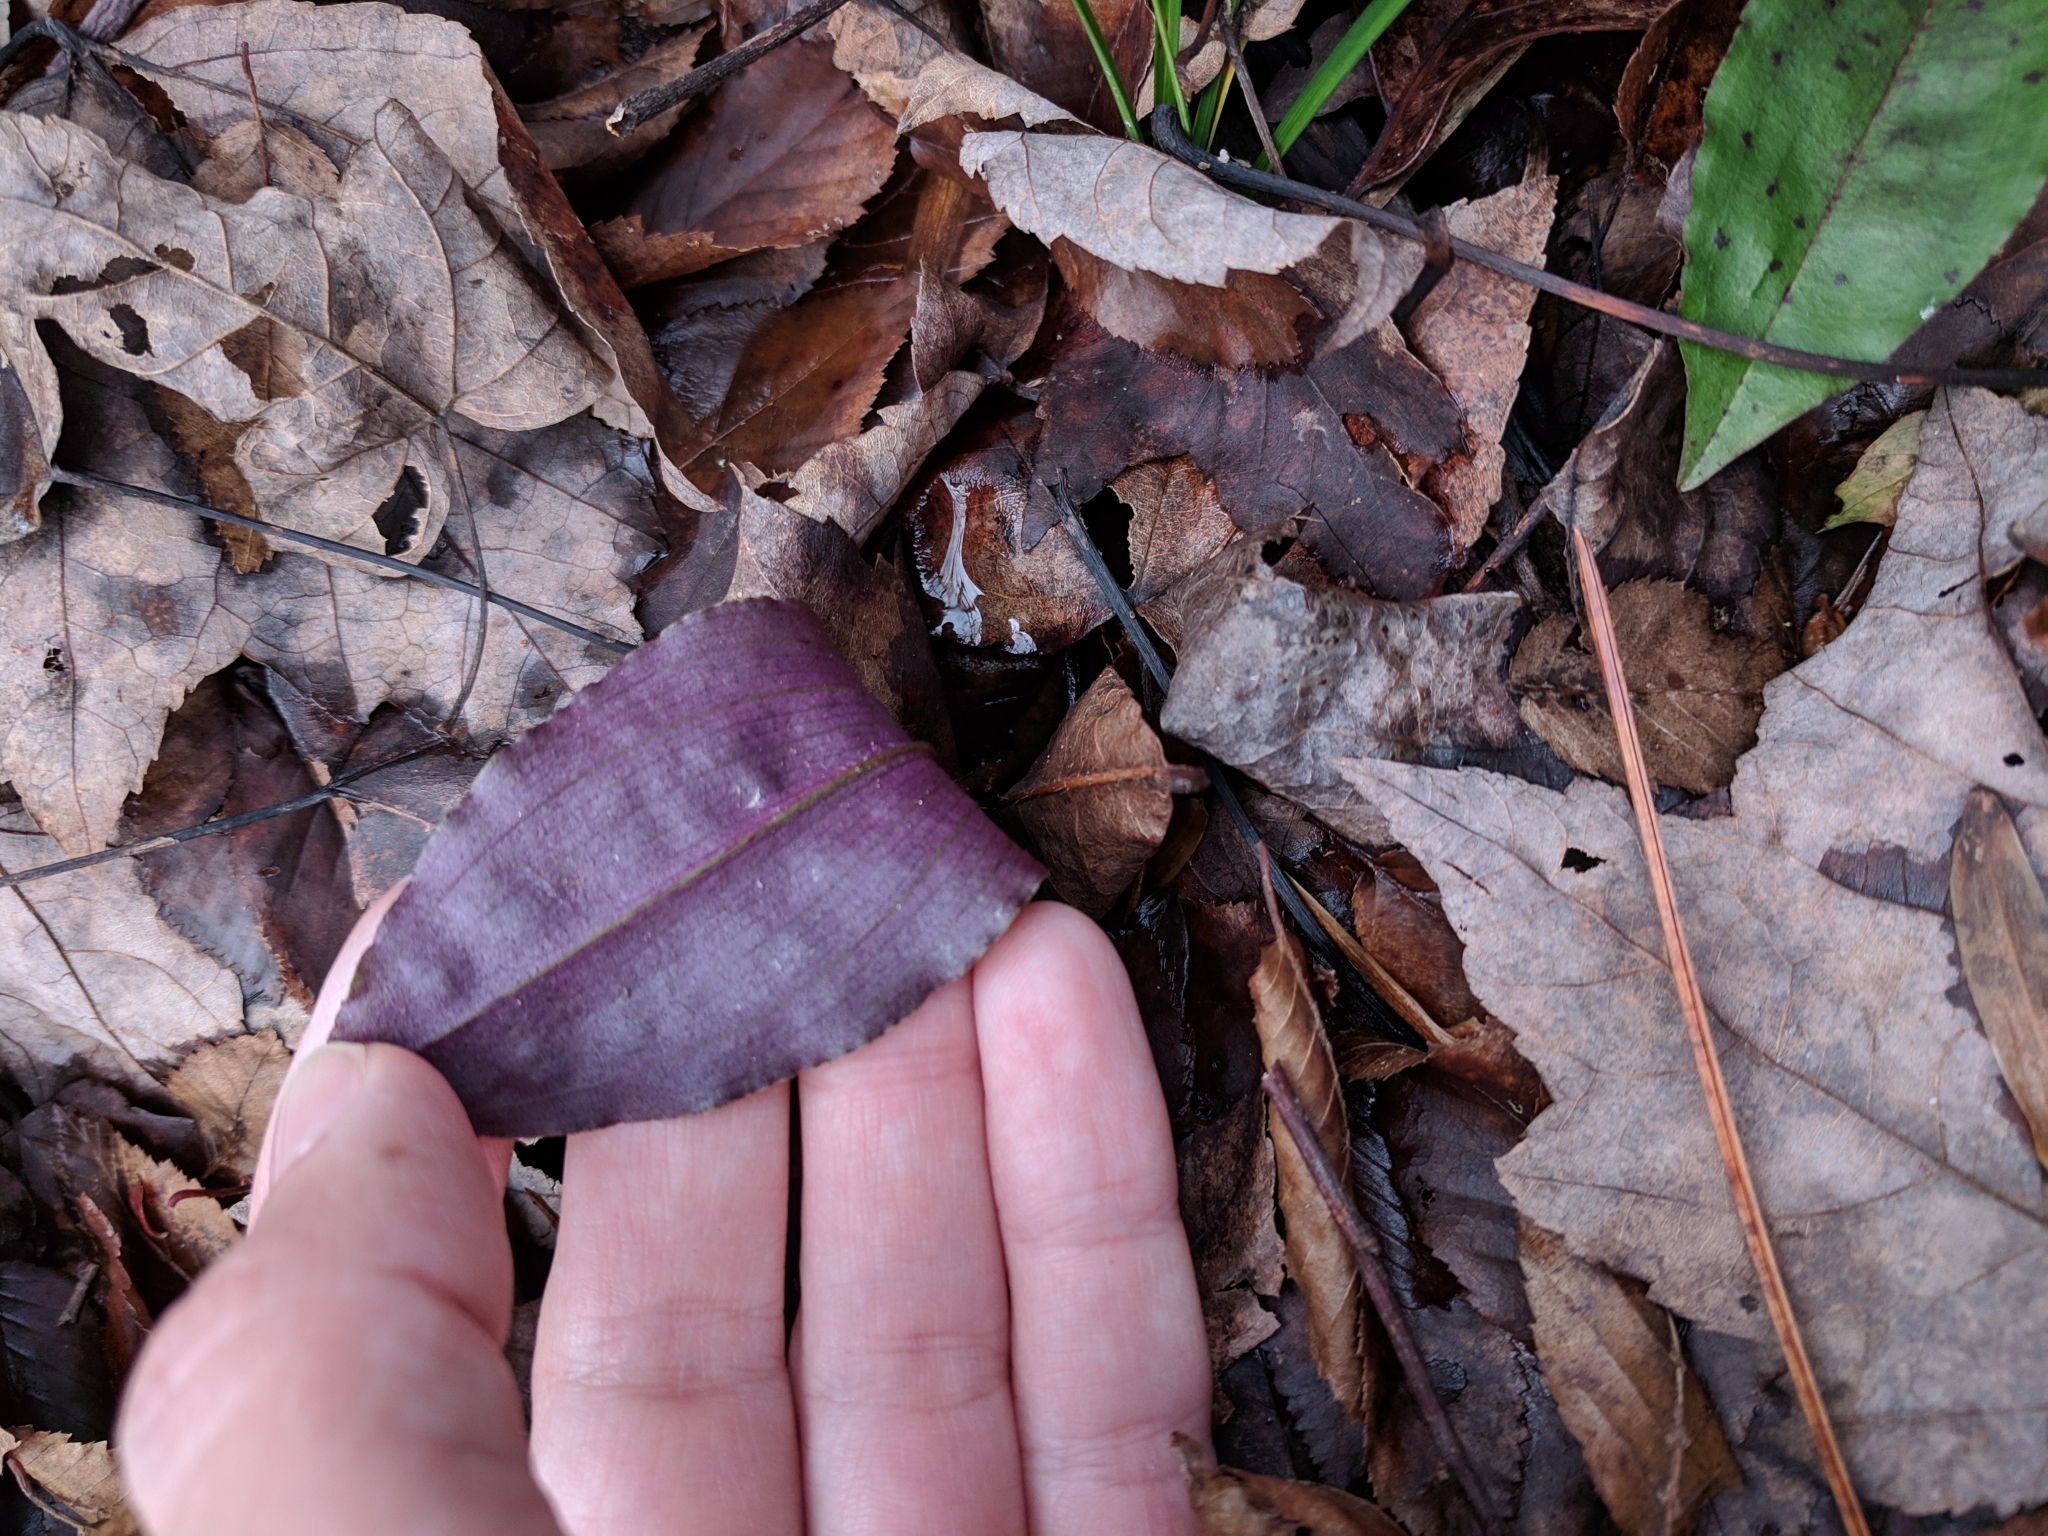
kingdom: Plantae
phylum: Tracheophyta
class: Liliopsida
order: Asparagales
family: Orchidaceae
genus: Tipularia
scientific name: Tipularia discolor
